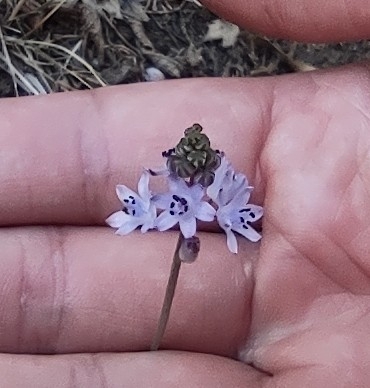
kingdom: Plantae
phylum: Tracheophyta
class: Liliopsida
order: Asparagales
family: Asparagaceae
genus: Prospero
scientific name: Prospero autumnale
